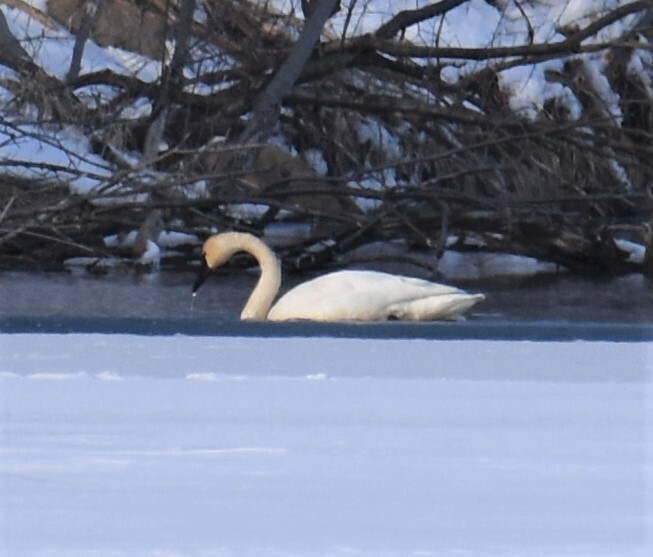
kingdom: Animalia
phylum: Chordata
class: Aves
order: Anseriformes
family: Anatidae
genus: Cygnus
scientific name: Cygnus buccinator
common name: Trumpeter swan
